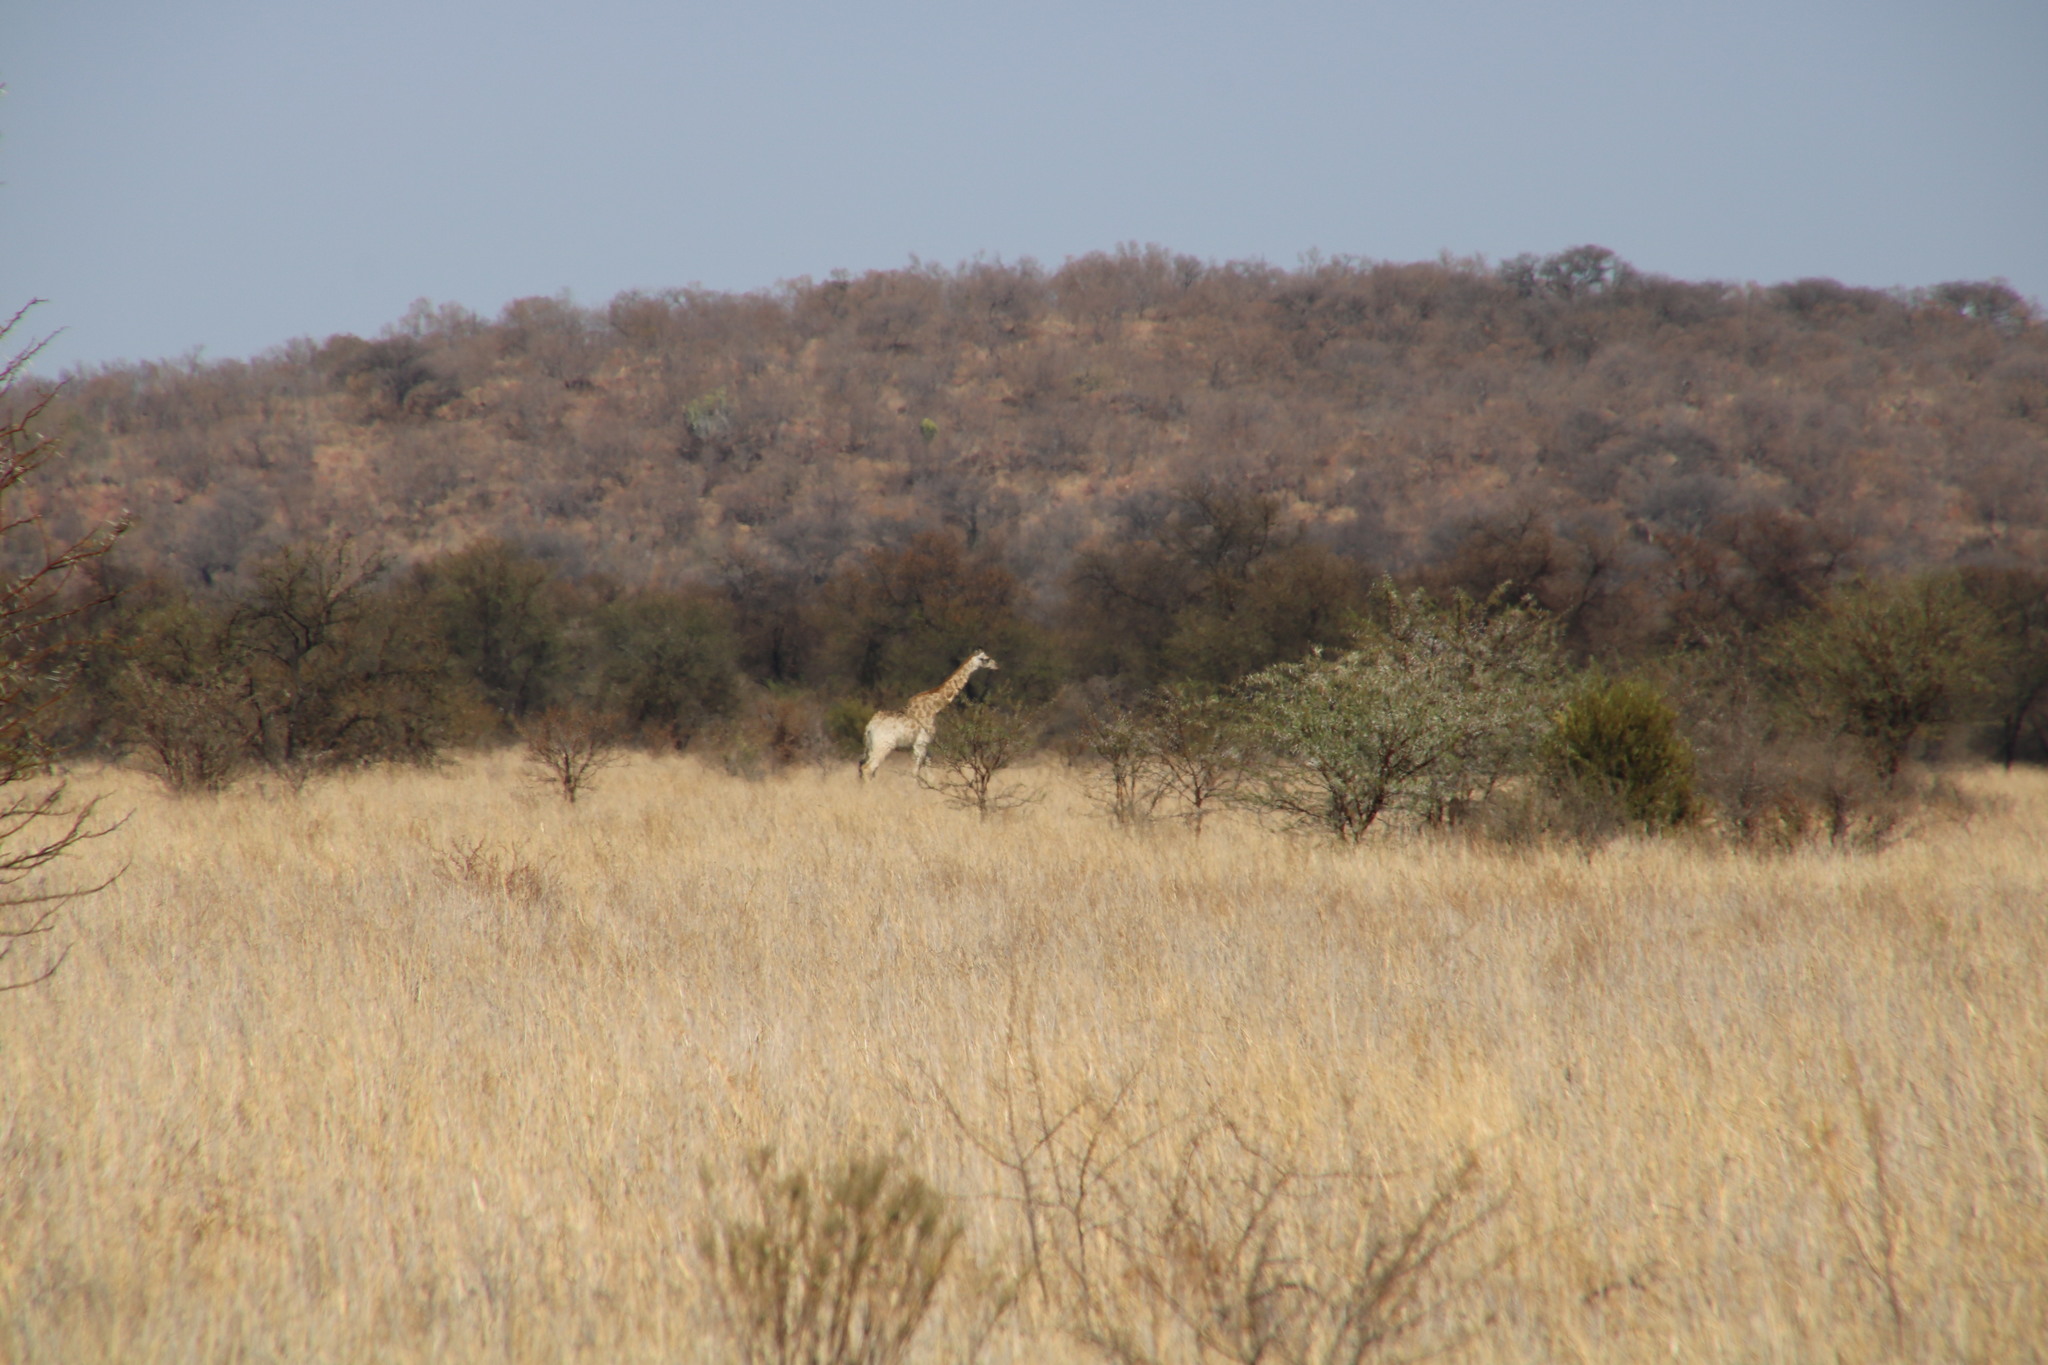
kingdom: Animalia
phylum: Chordata
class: Mammalia
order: Artiodactyla
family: Giraffidae
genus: Giraffa
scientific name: Giraffa giraffa
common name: Southern giraffe
